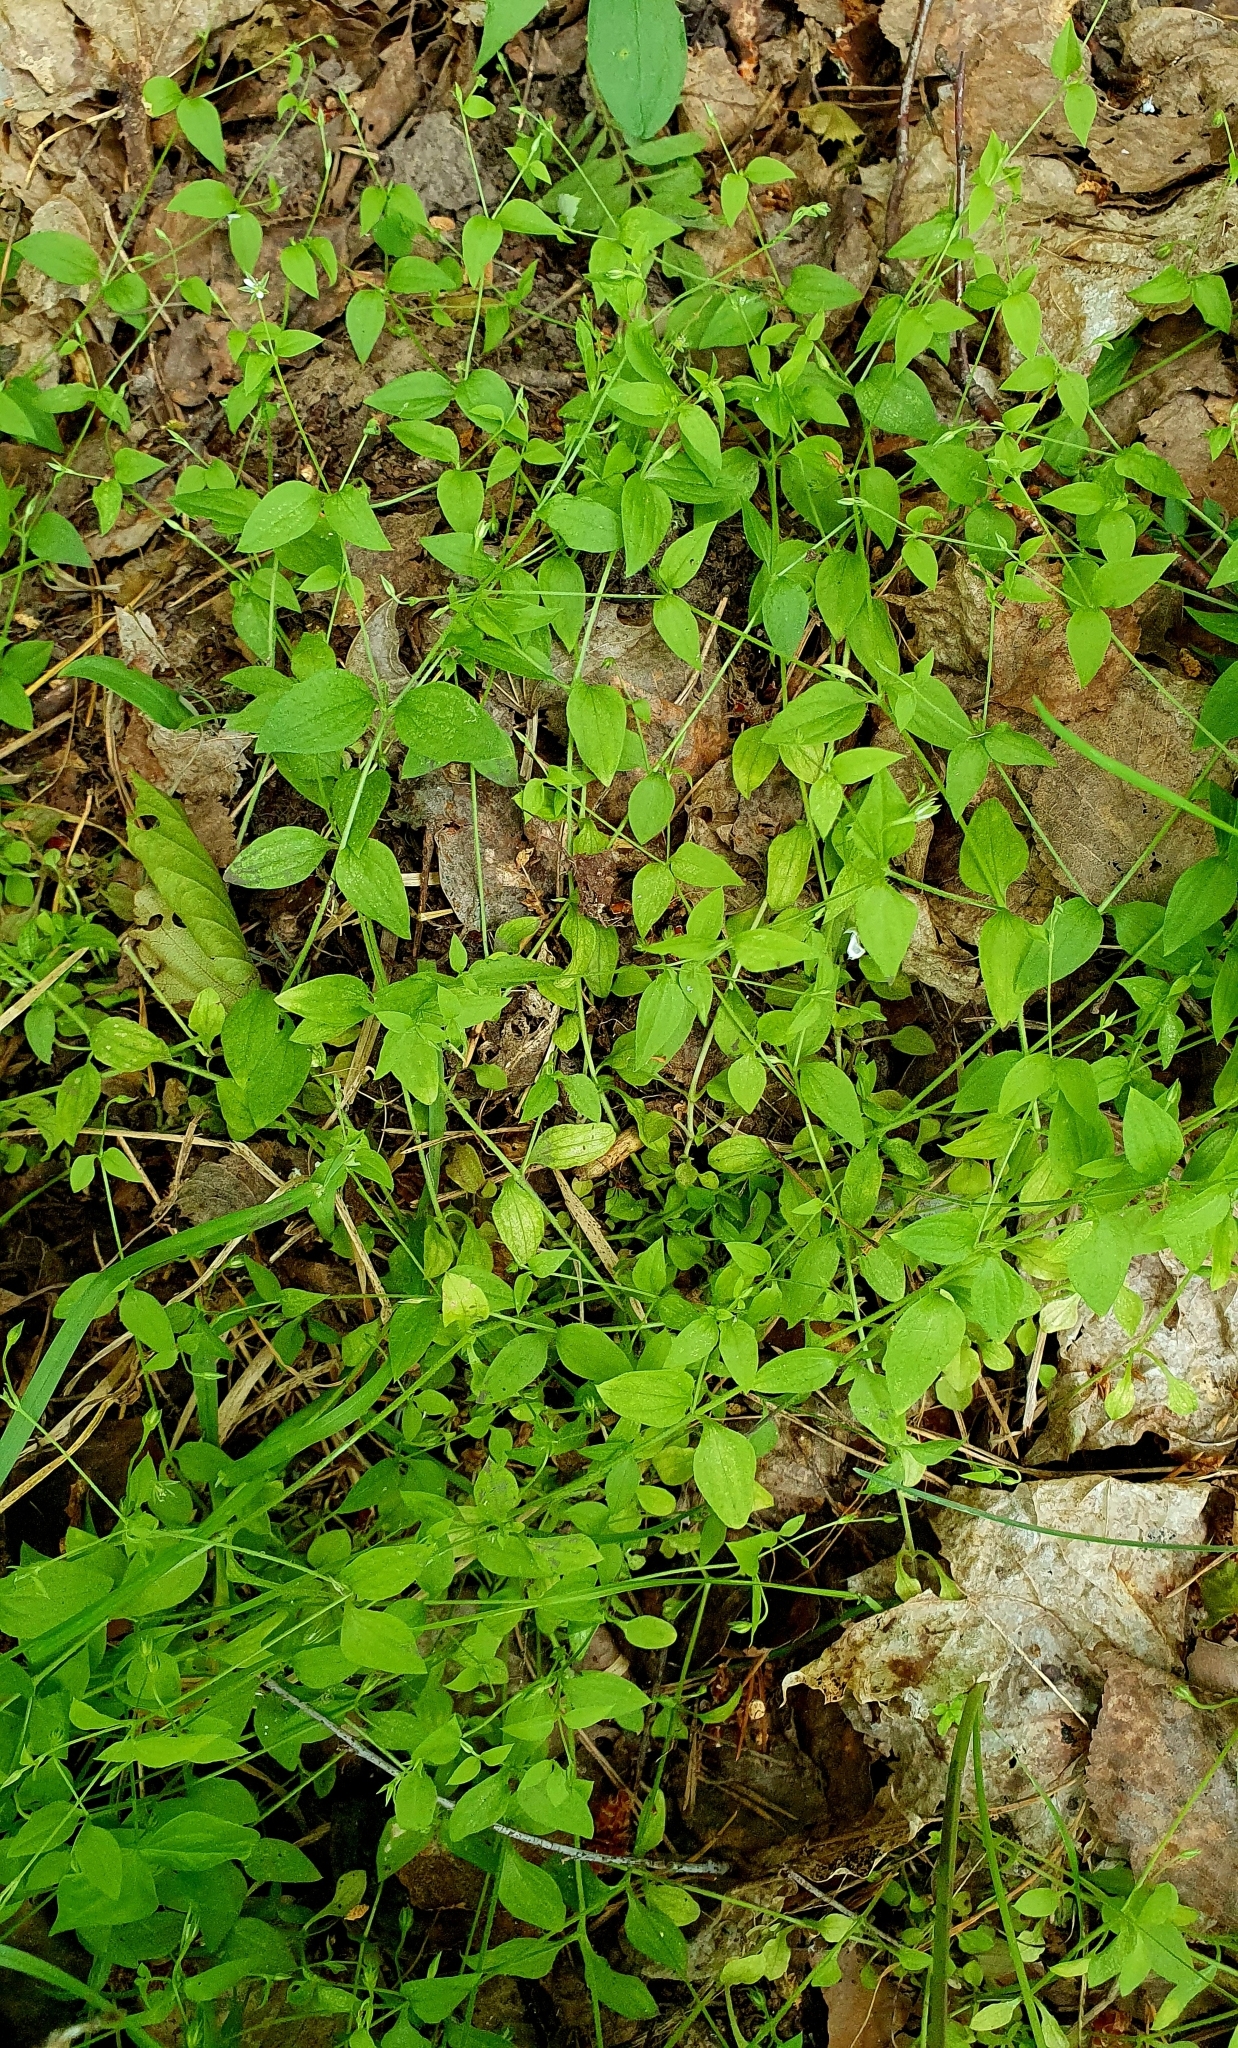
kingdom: Plantae
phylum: Tracheophyta
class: Magnoliopsida
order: Caryophyllales
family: Caryophyllaceae
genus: Moehringia
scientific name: Moehringia trinervia
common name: Three-nerved sandwort
